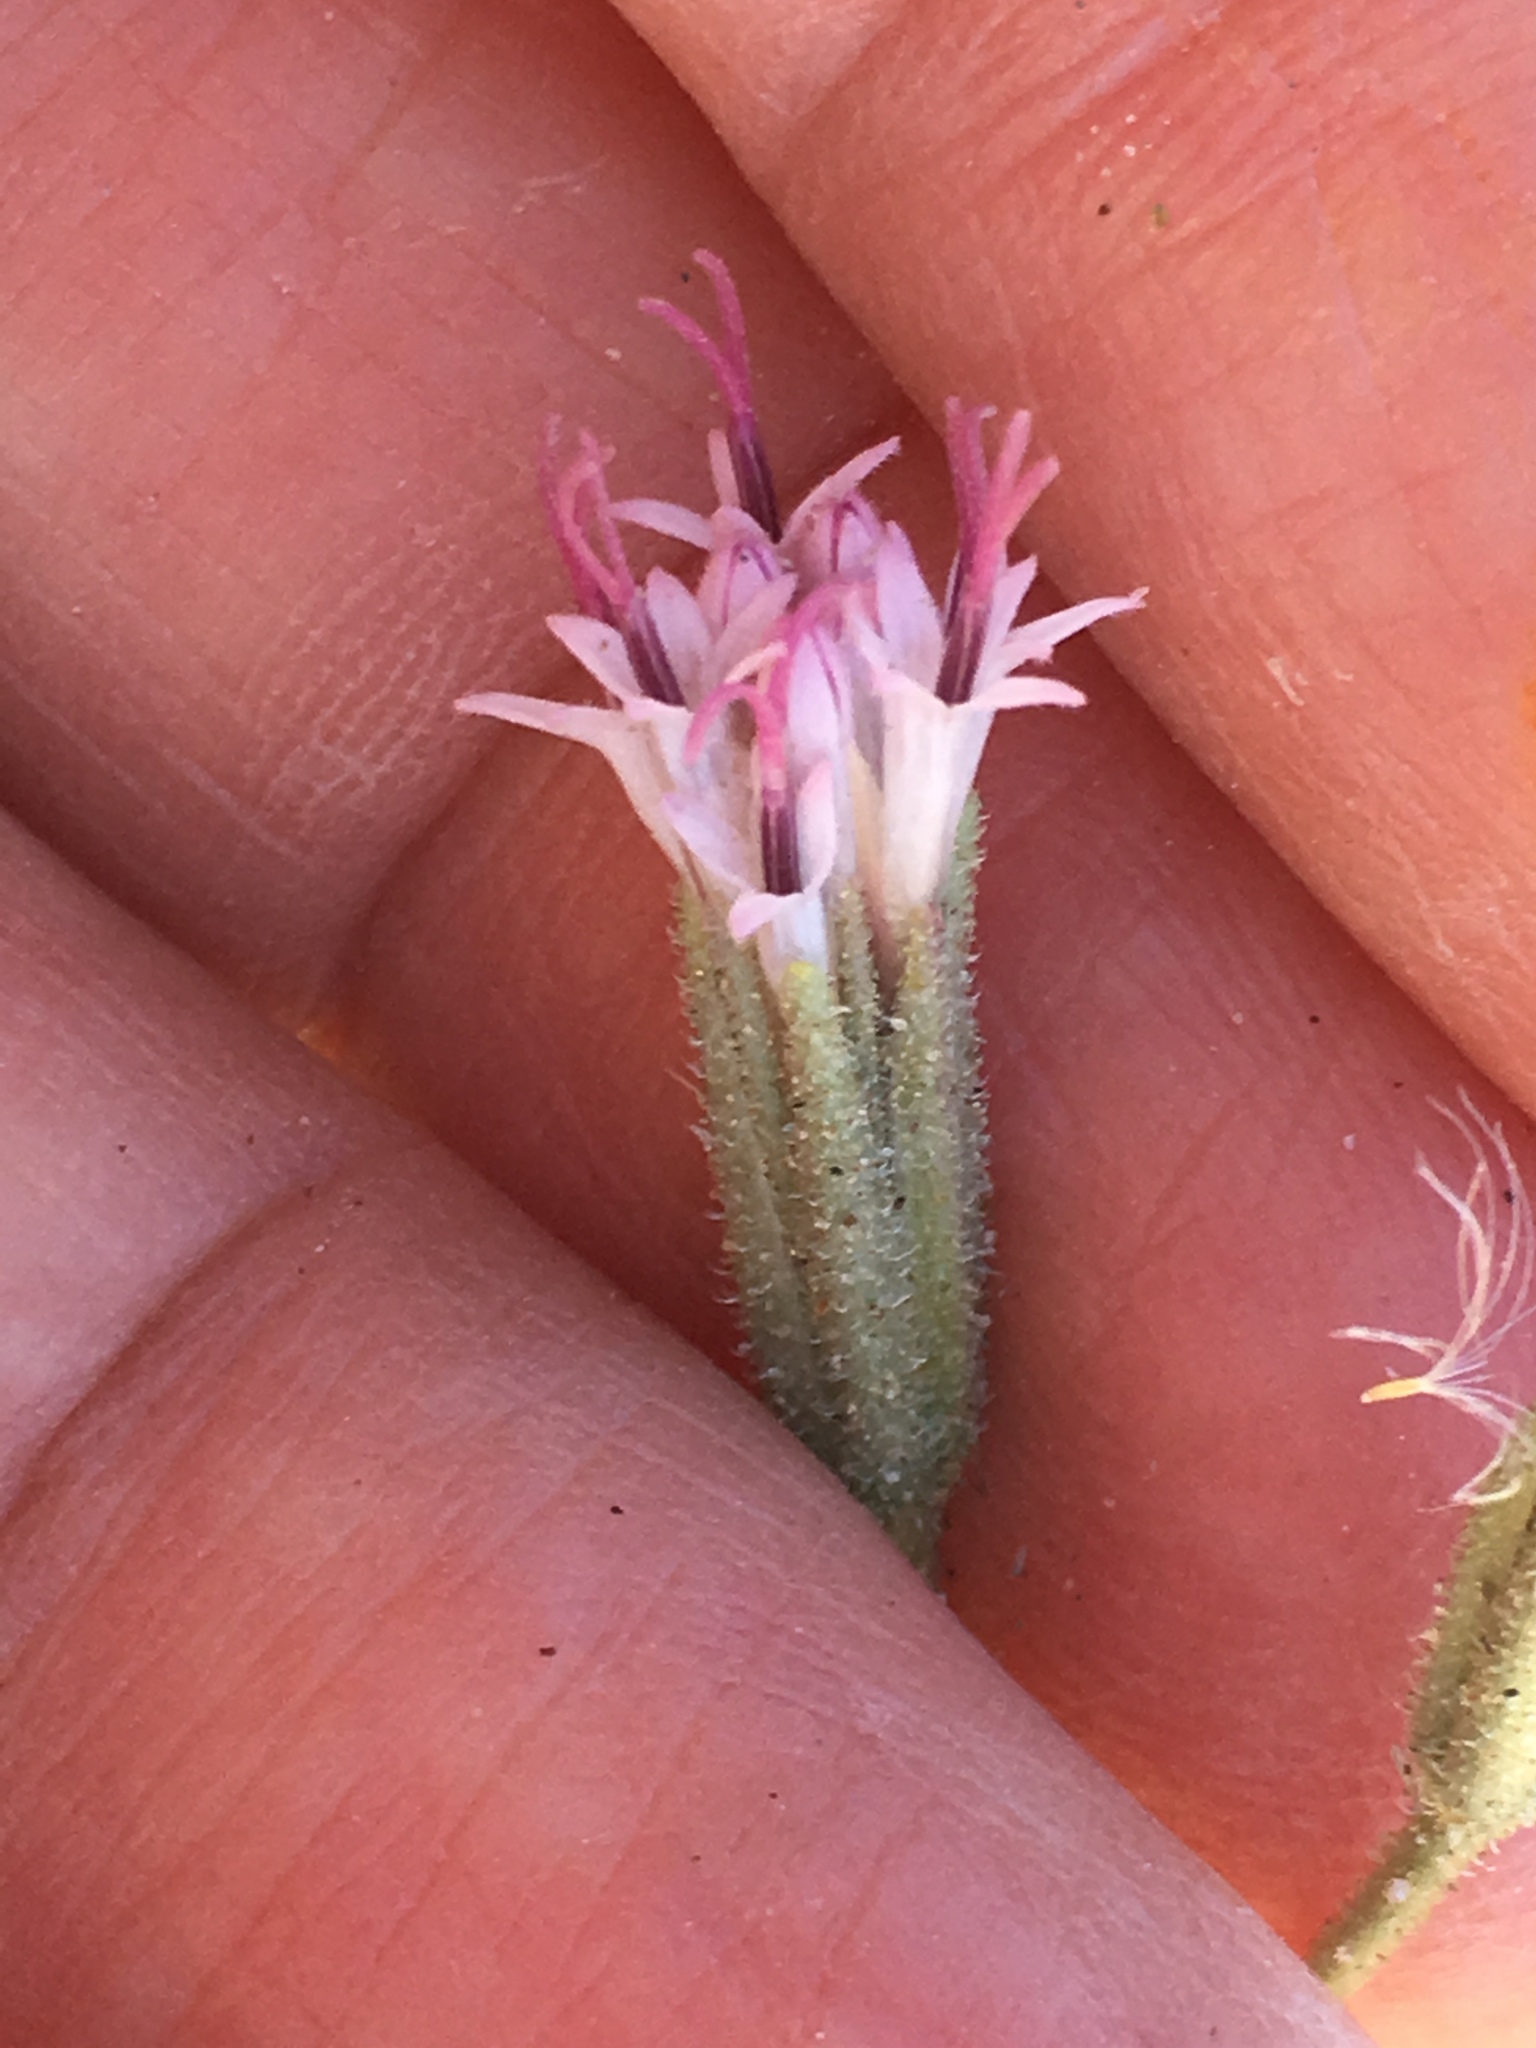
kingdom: Plantae
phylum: Tracheophyta
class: Magnoliopsida
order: Asterales
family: Asteraceae
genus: Palafoxia
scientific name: Palafoxia arida
